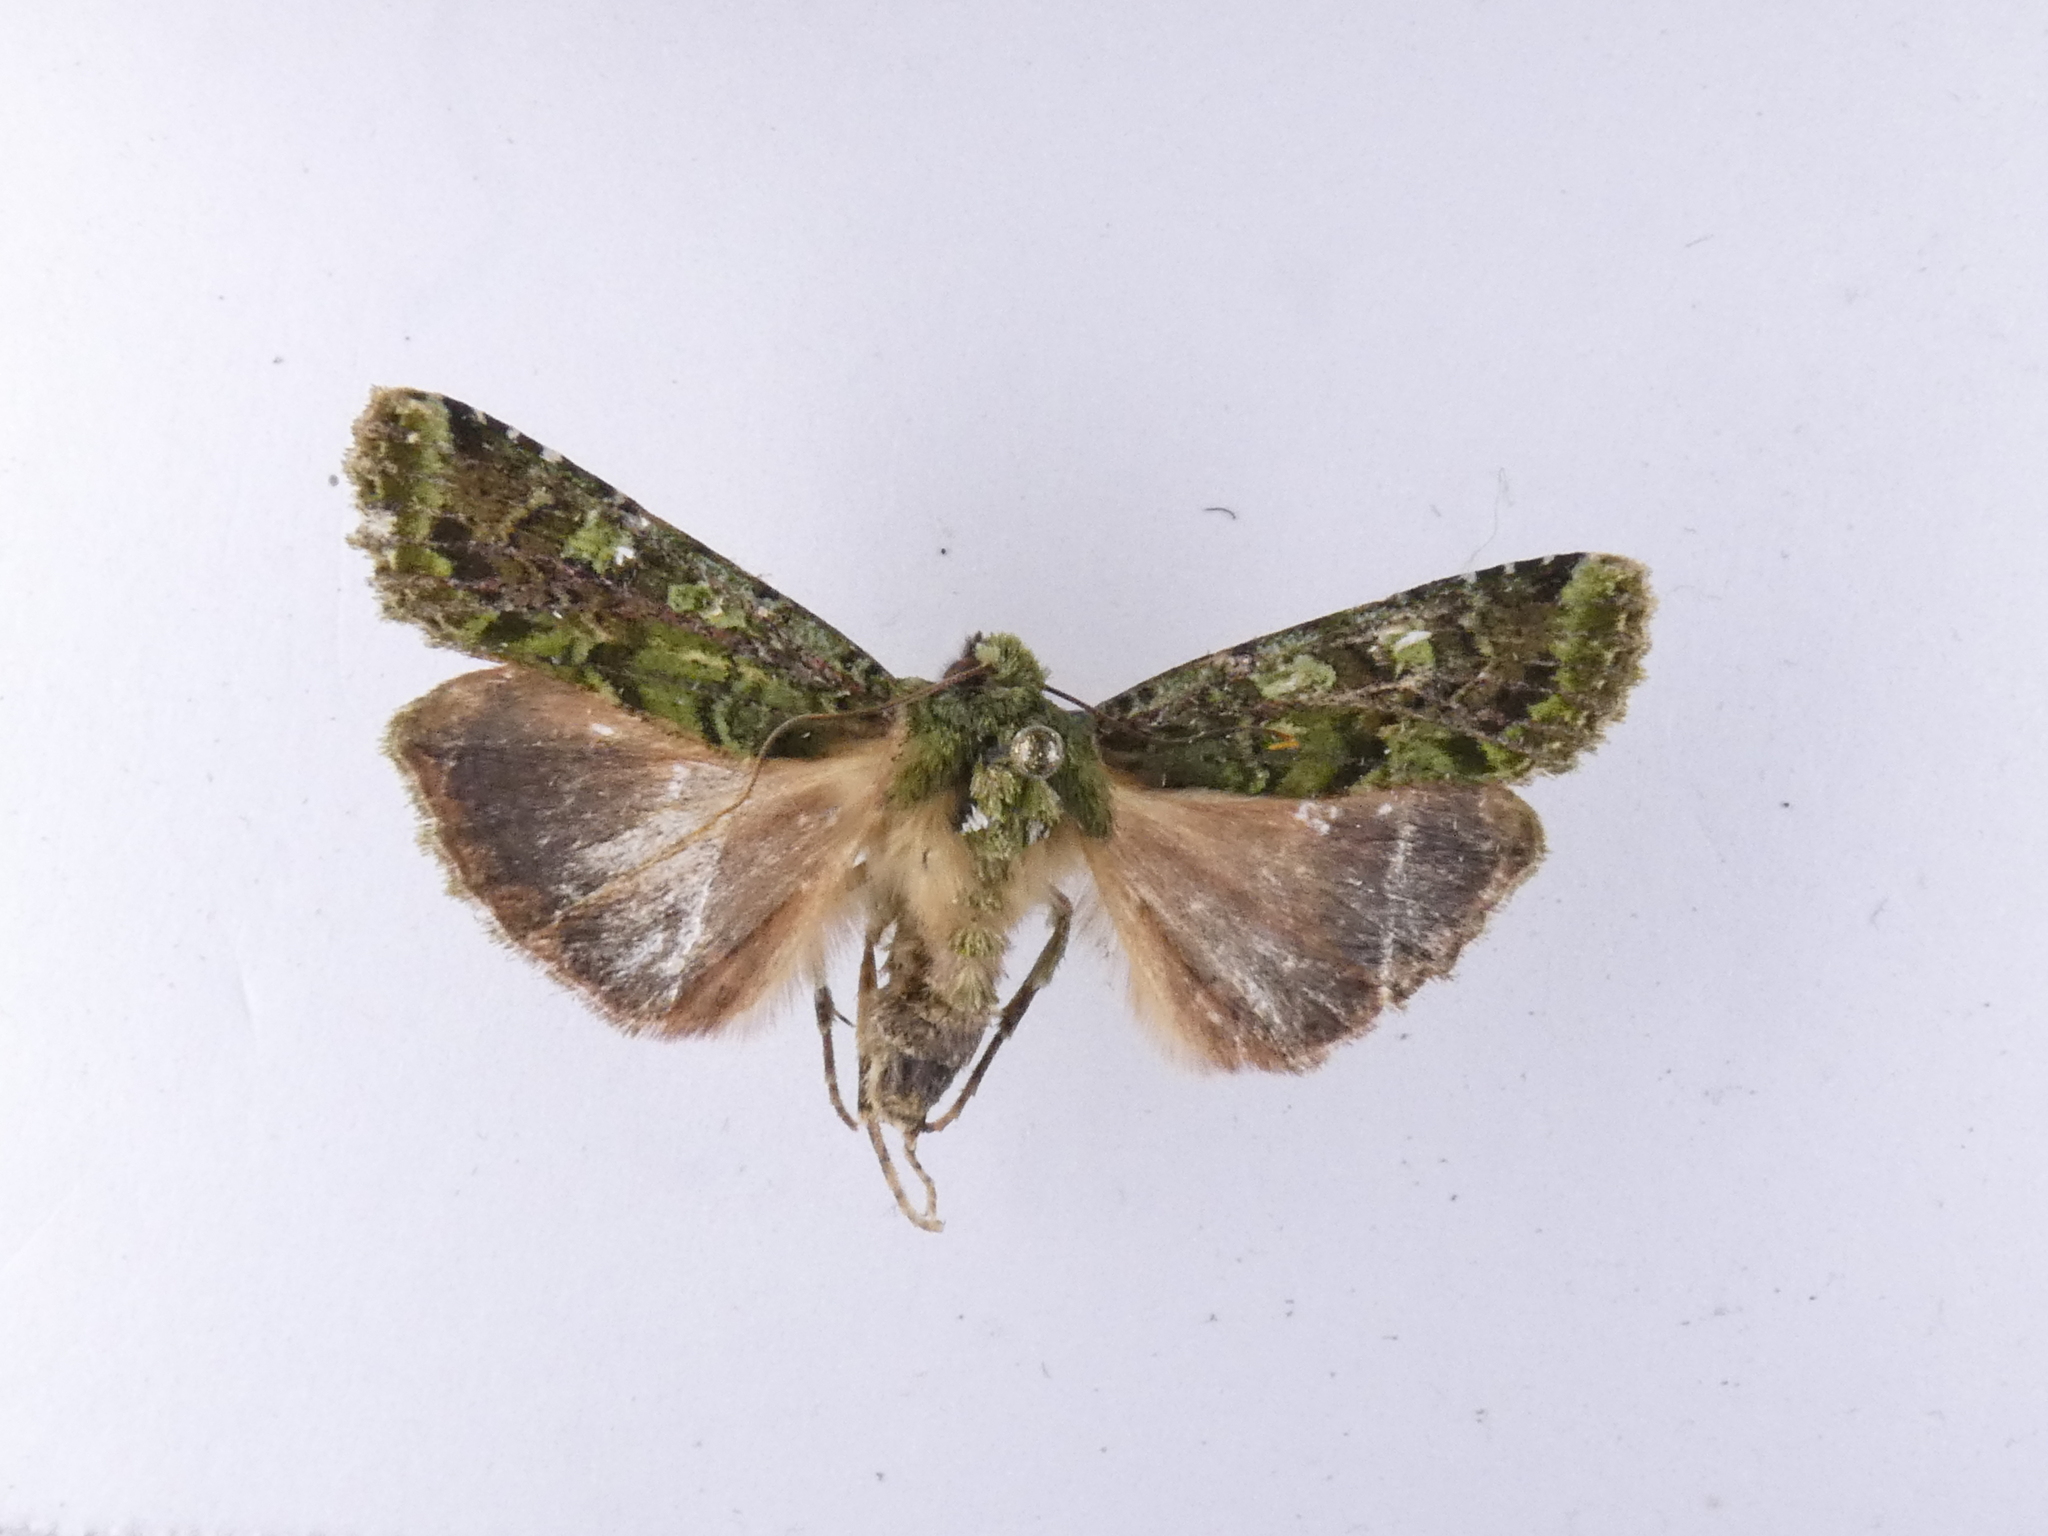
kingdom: Animalia
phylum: Arthropoda
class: Insecta
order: Lepidoptera
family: Noctuidae
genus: Feredayia
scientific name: Feredayia grammosa
